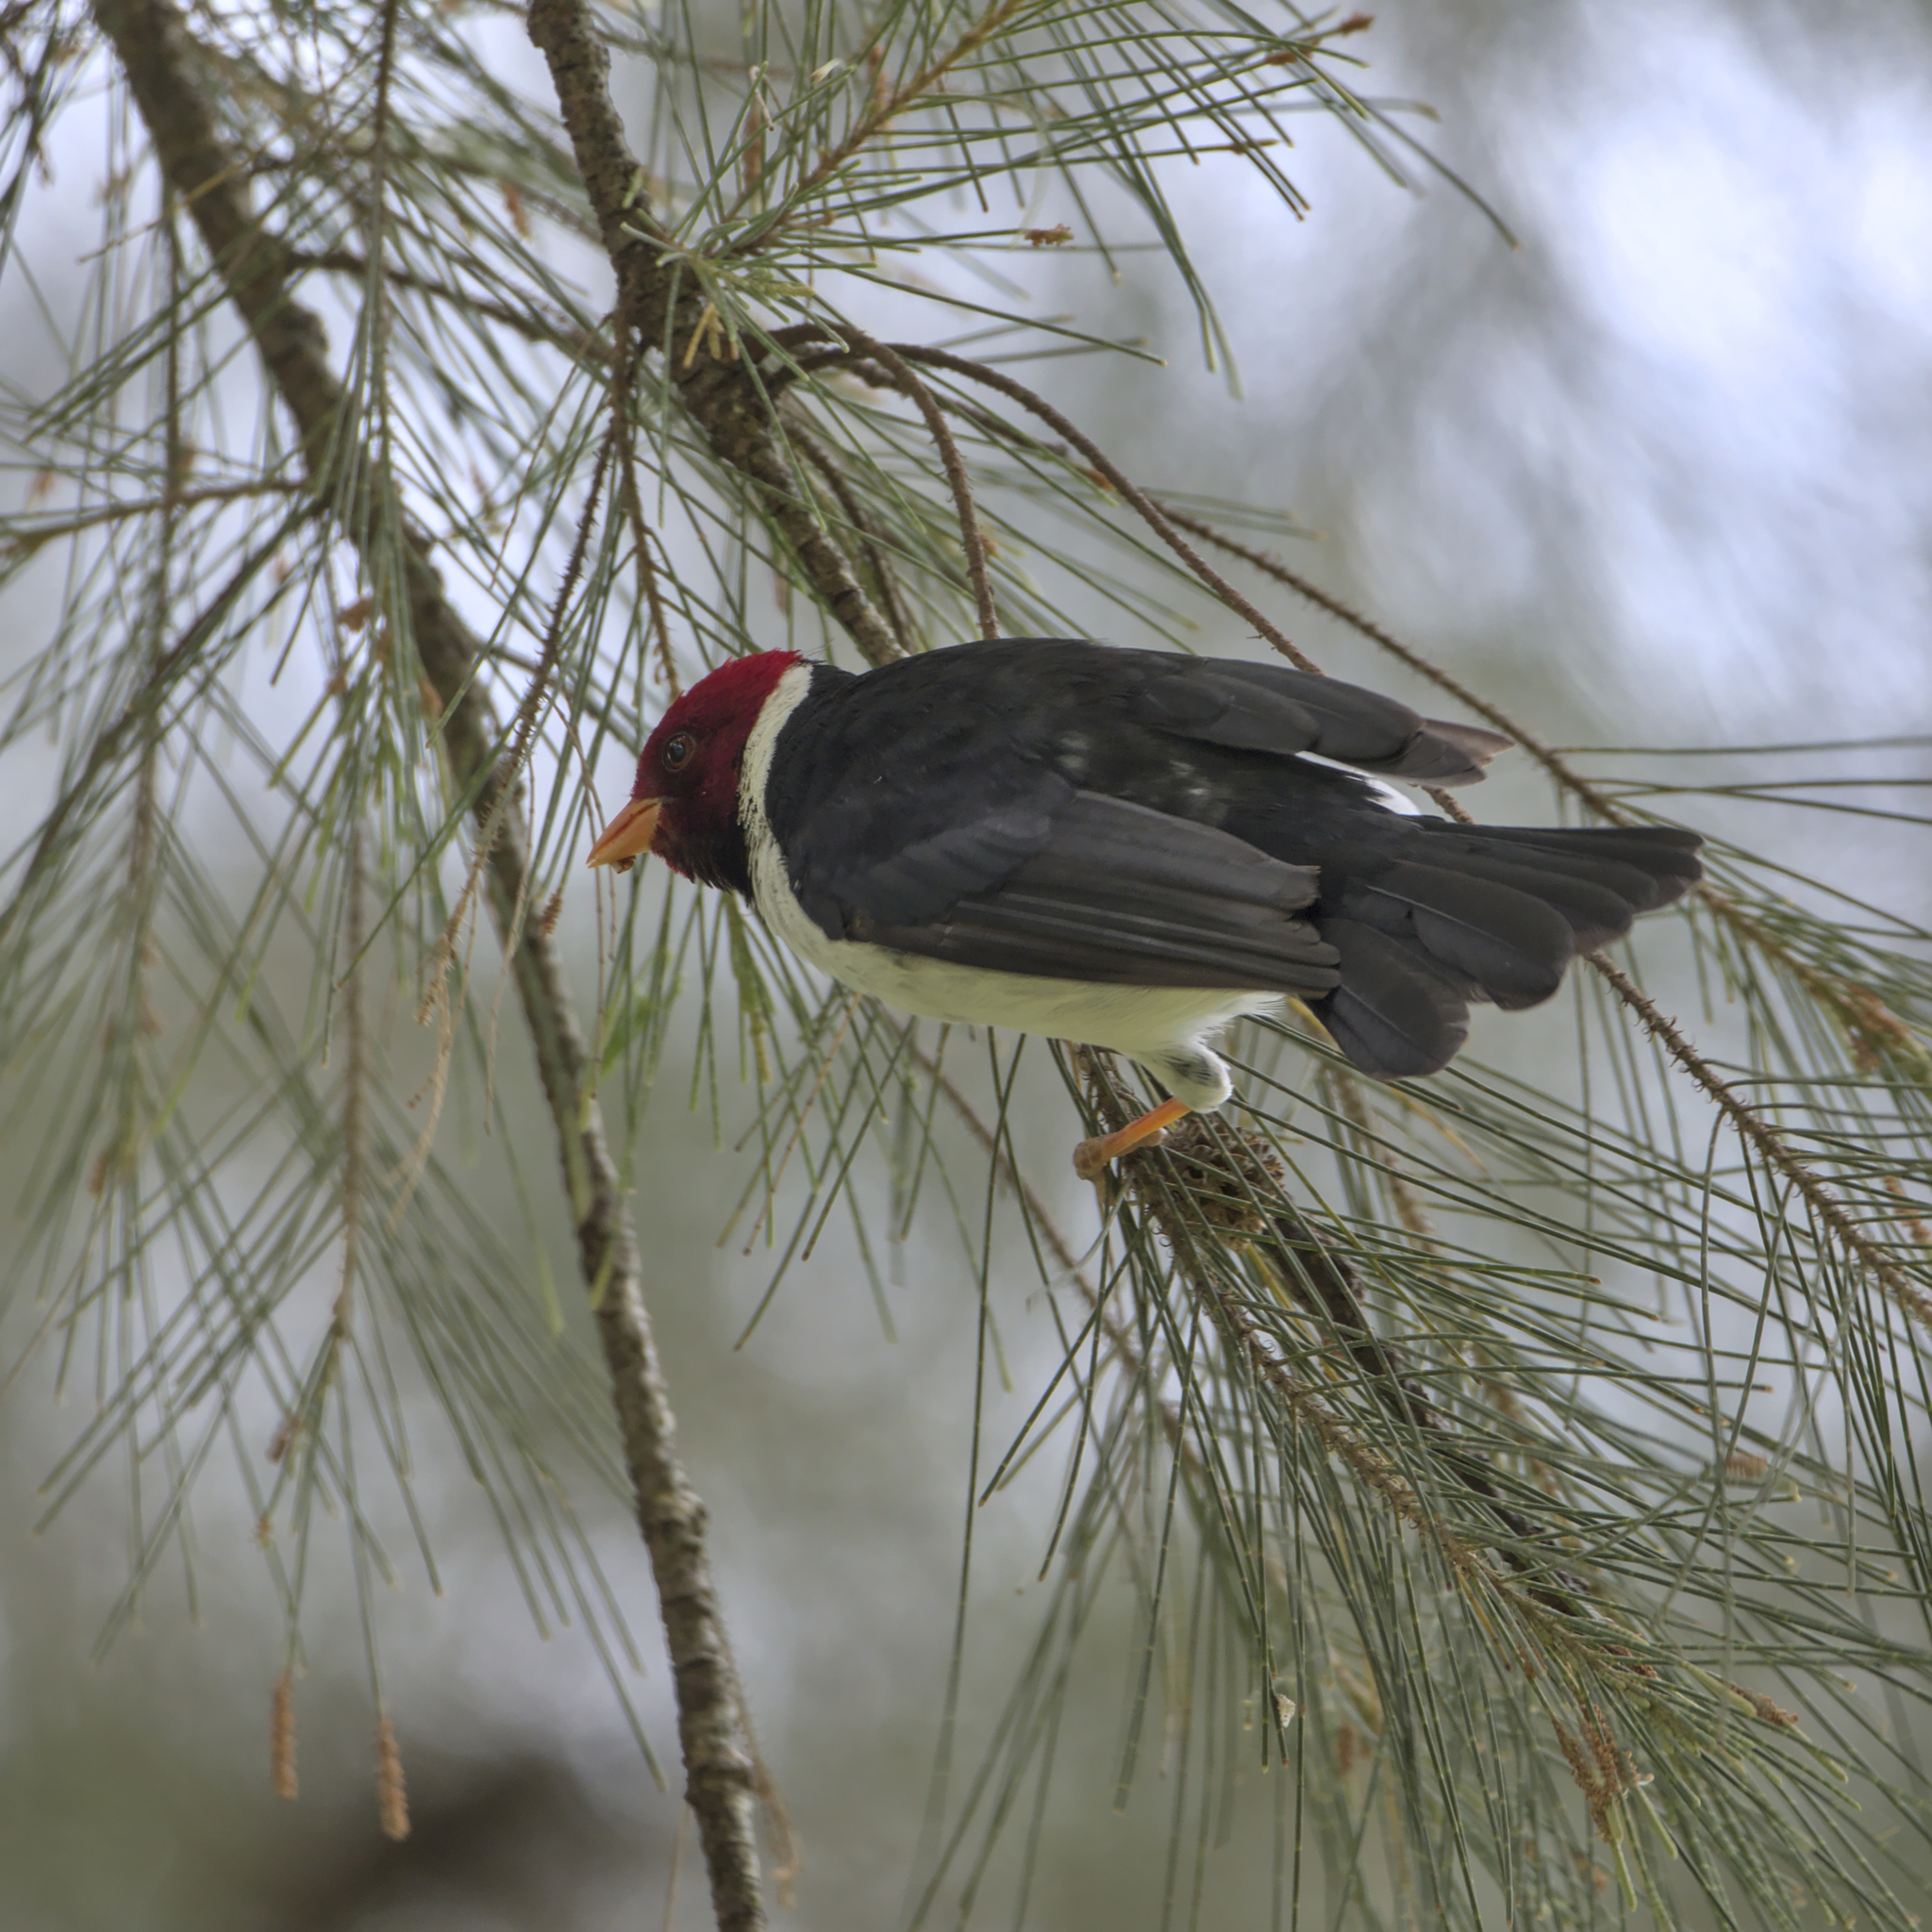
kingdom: Animalia
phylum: Chordata
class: Aves
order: Passeriformes
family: Thraupidae
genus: Paroaria
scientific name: Paroaria capitata
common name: Yellow-billed cardinal
